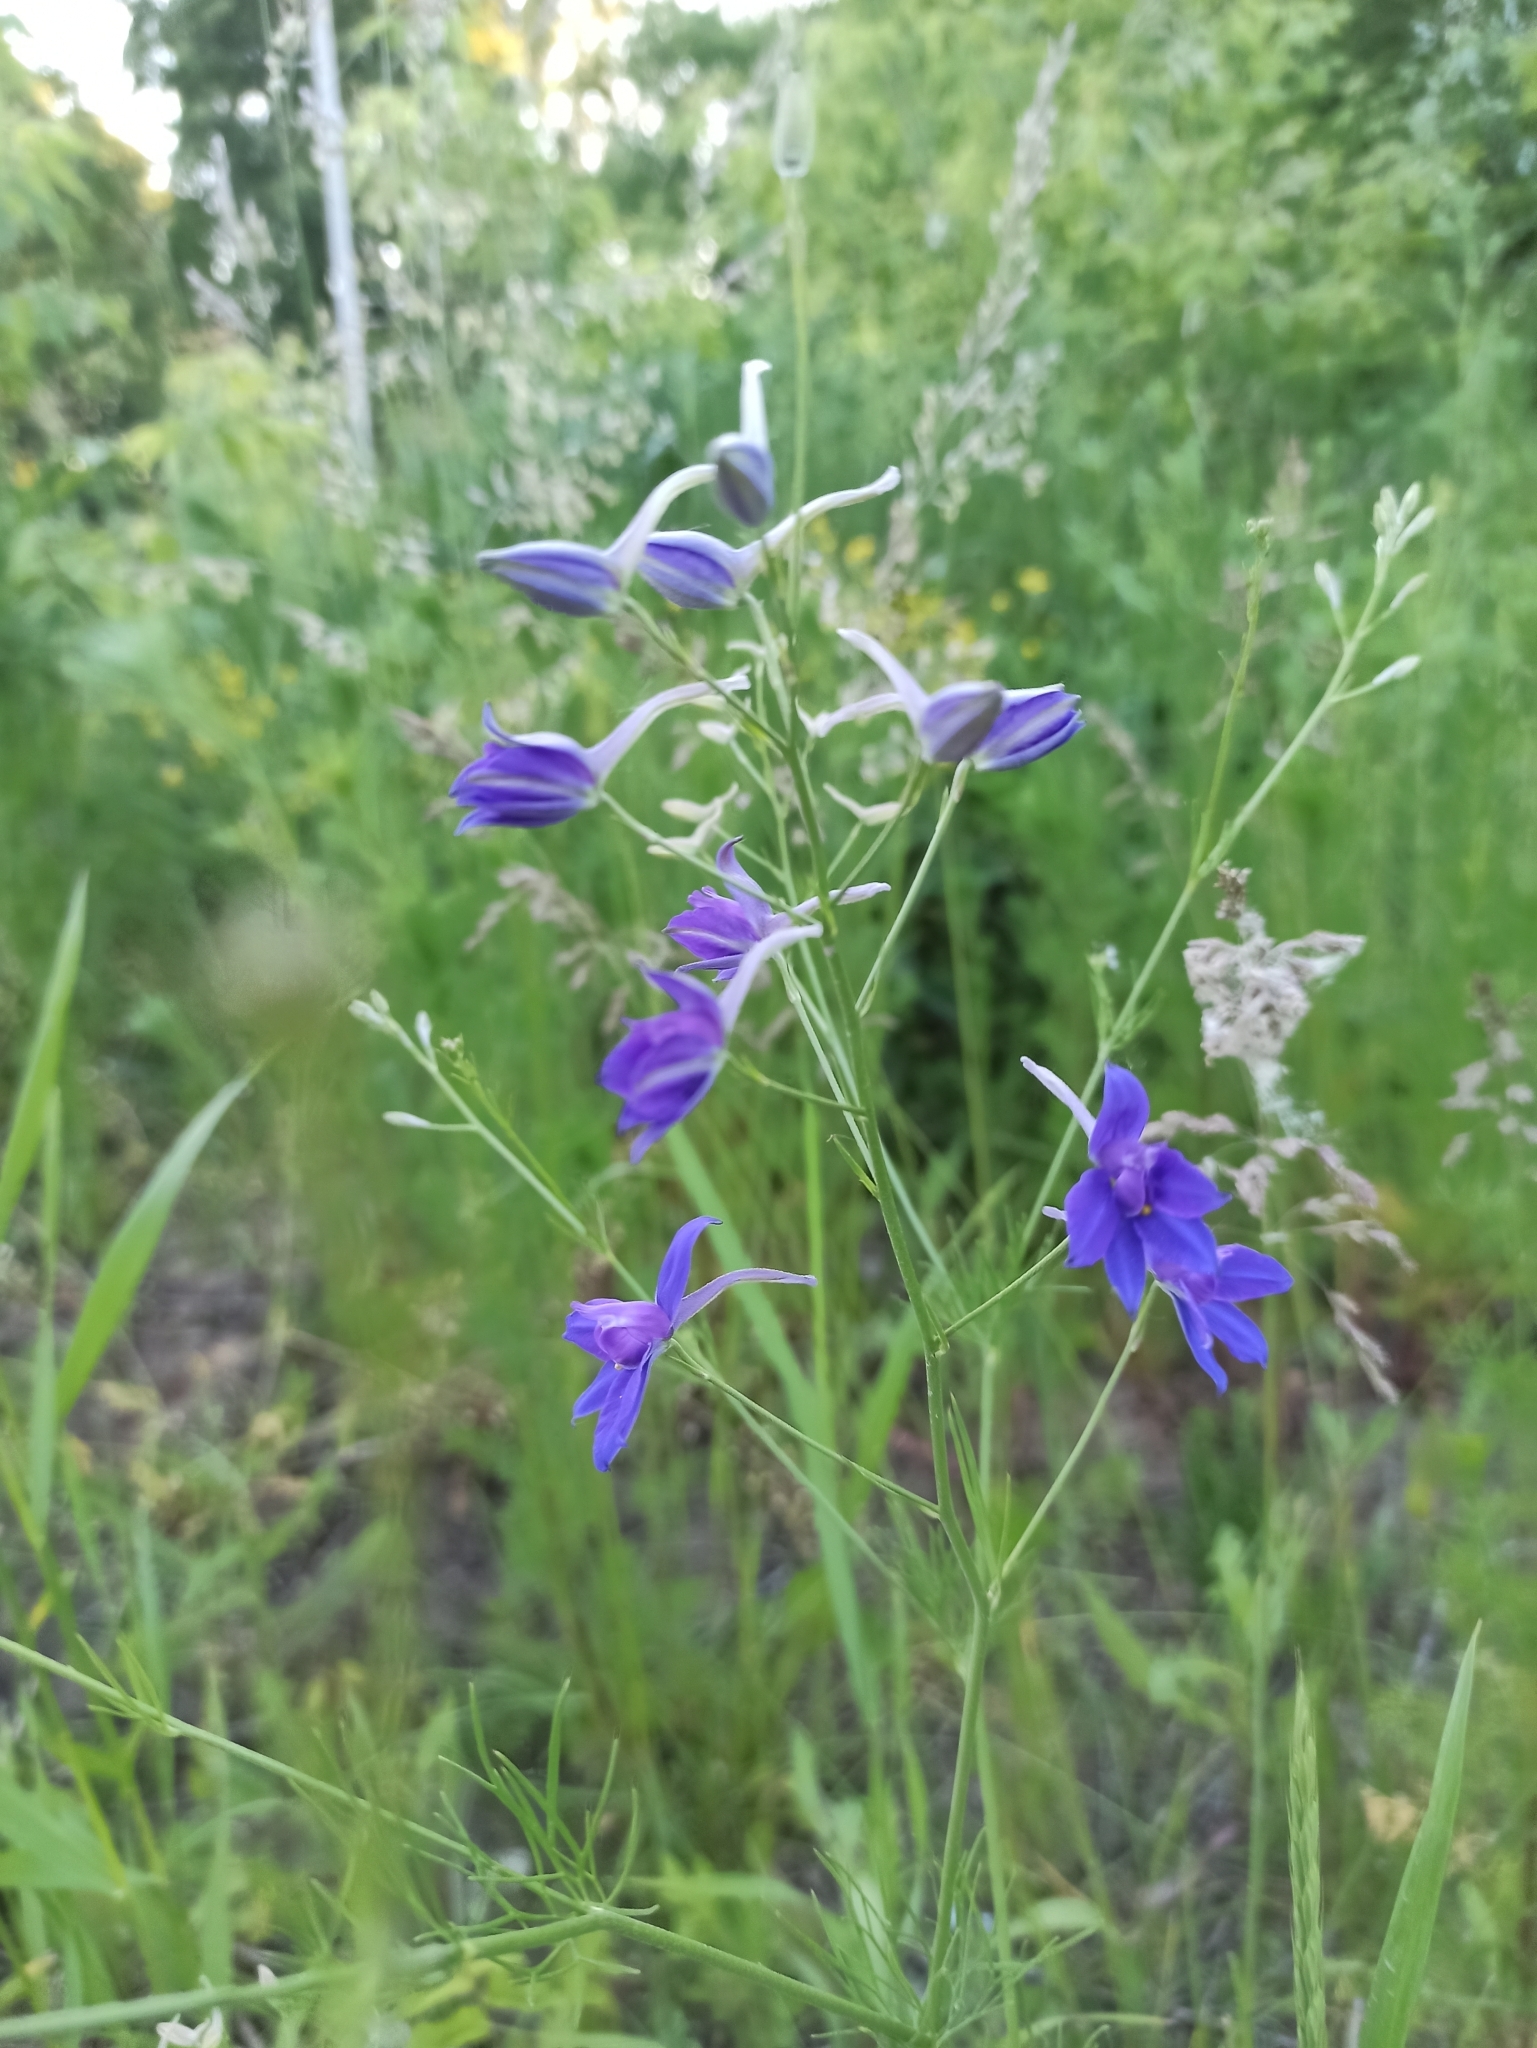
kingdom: Plantae
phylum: Tracheophyta
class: Magnoliopsida
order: Ranunculales
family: Ranunculaceae
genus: Delphinium
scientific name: Delphinium consolida
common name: Branching larkspur
